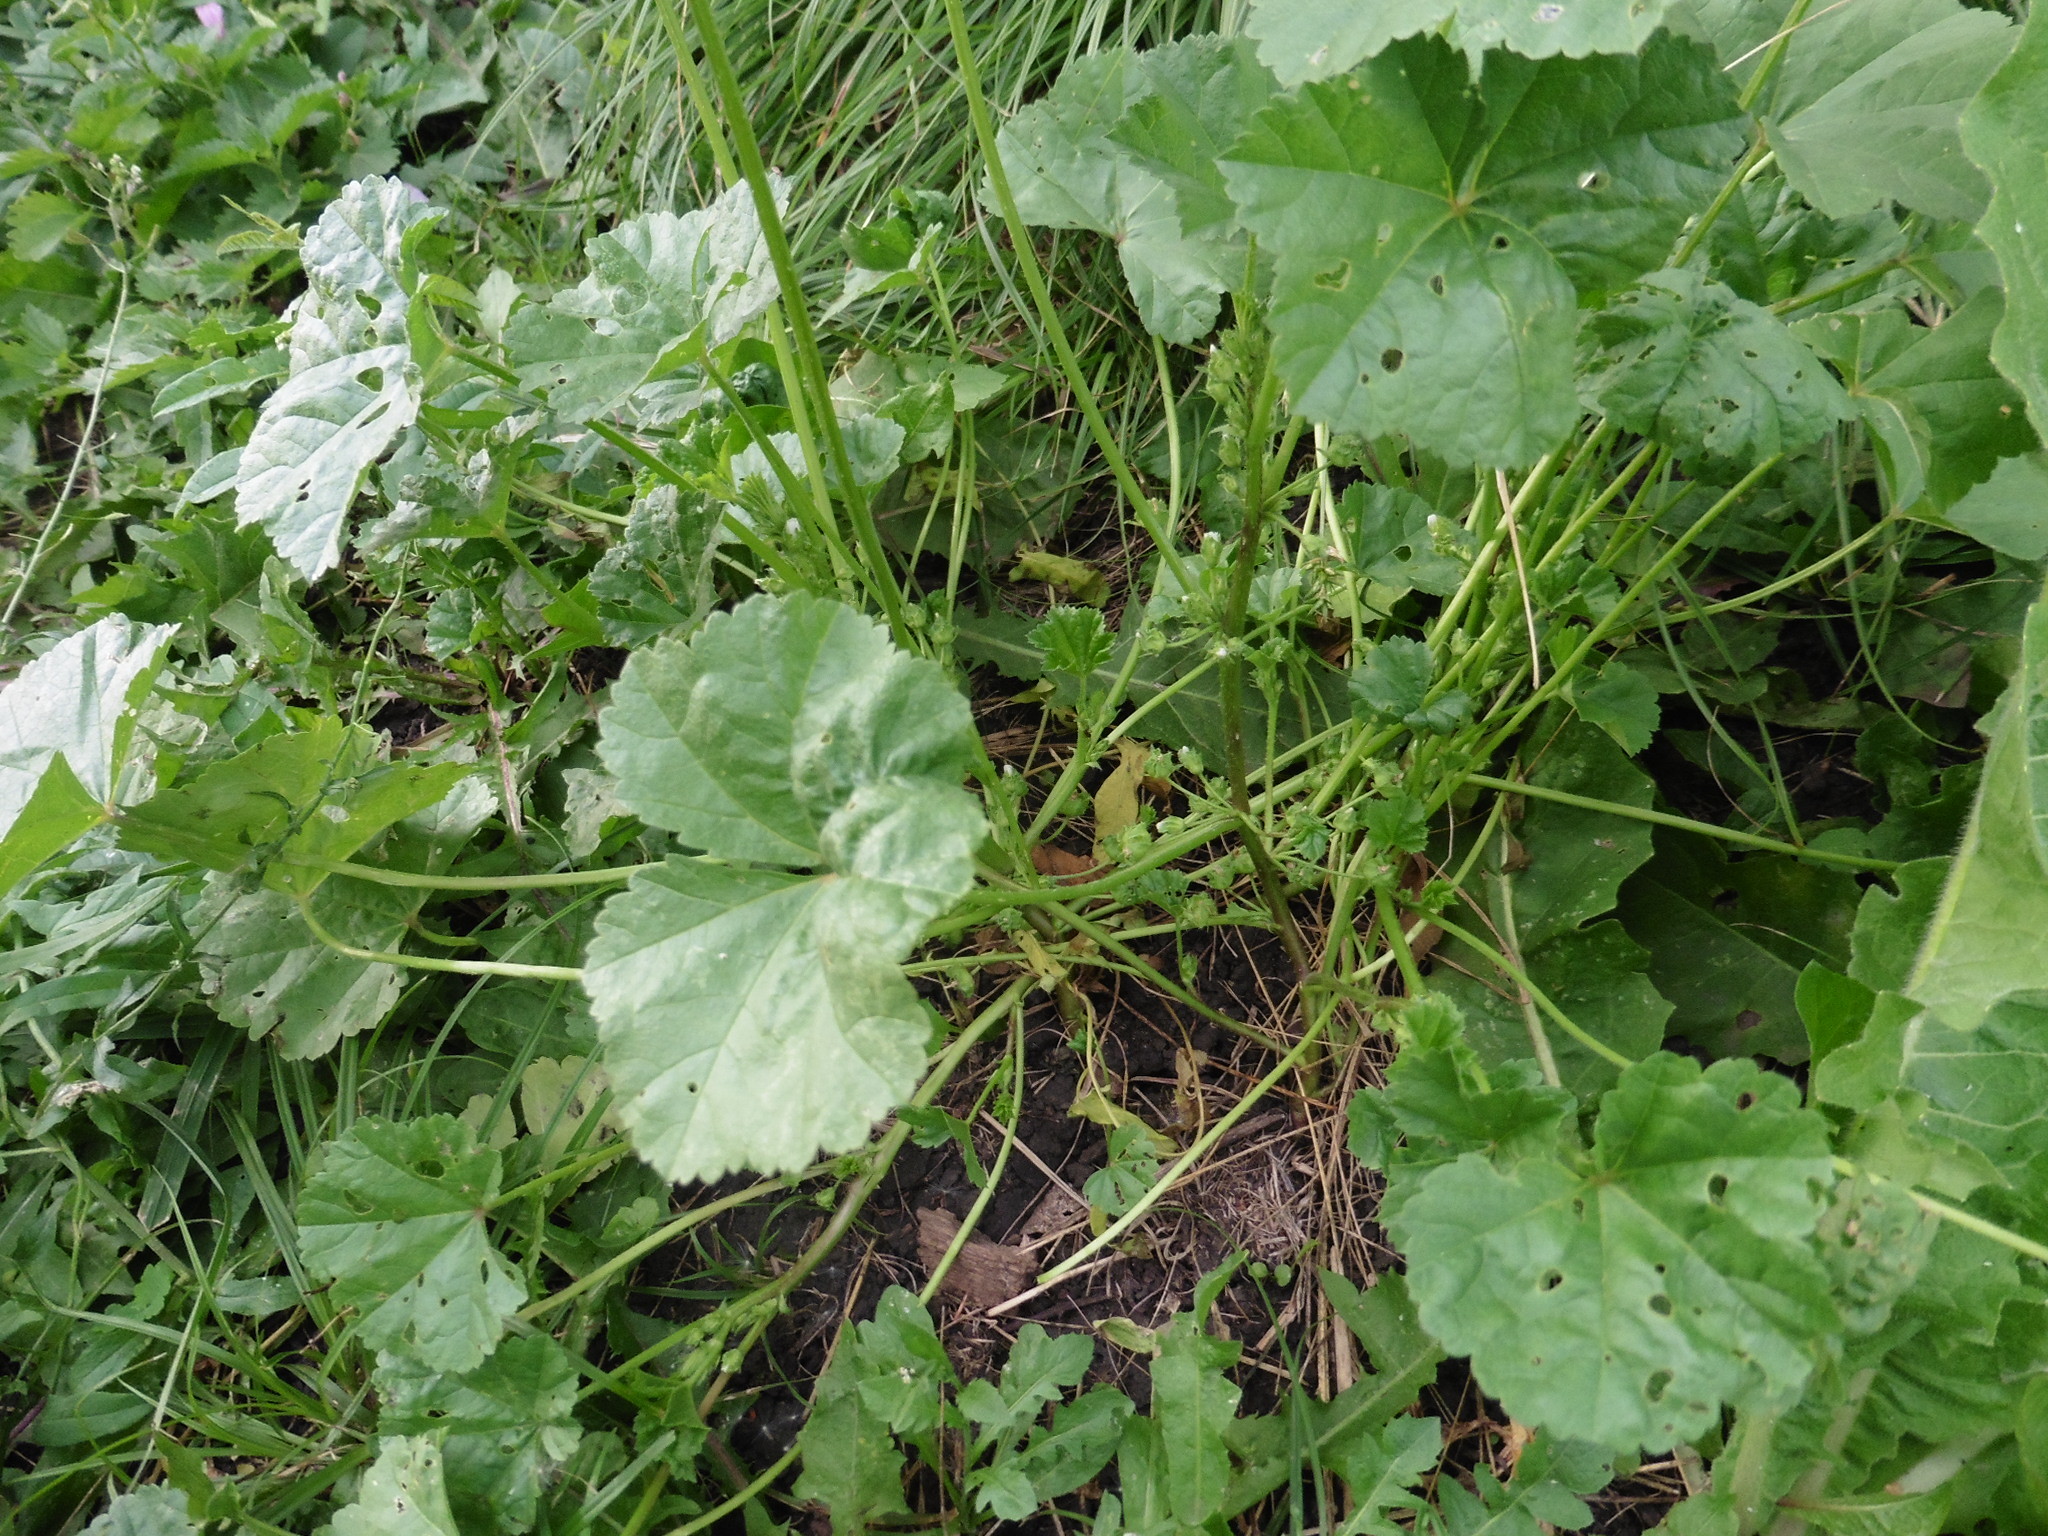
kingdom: Plantae
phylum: Tracheophyta
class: Magnoliopsida
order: Malvales
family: Malvaceae
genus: Malva
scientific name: Malva pusilla
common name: Small mallow
